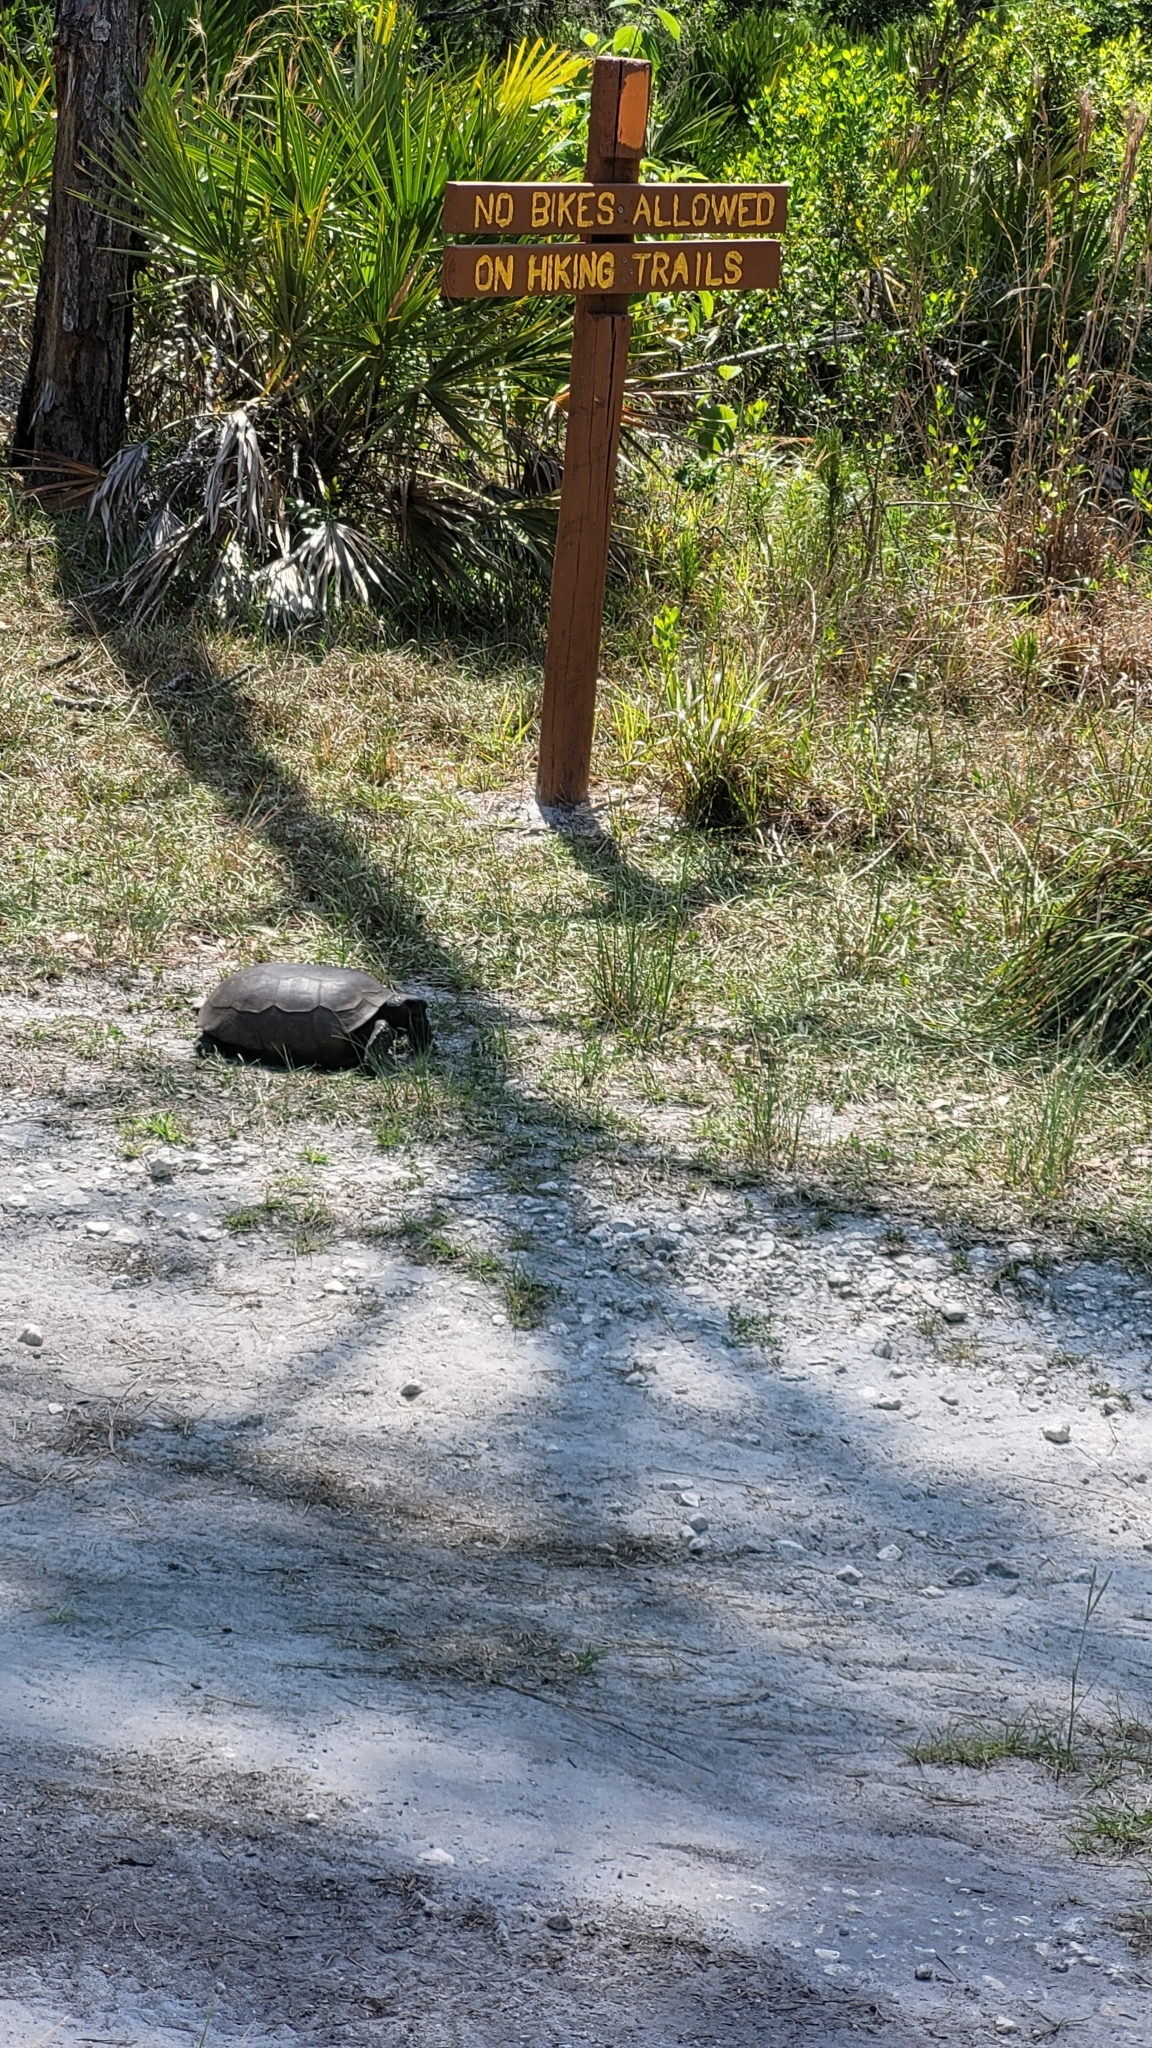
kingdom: Animalia
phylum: Chordata
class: Testudines
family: Testudinidae
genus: Gopherus
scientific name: Gopherus polyphemus
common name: Florida gopher tortoise
